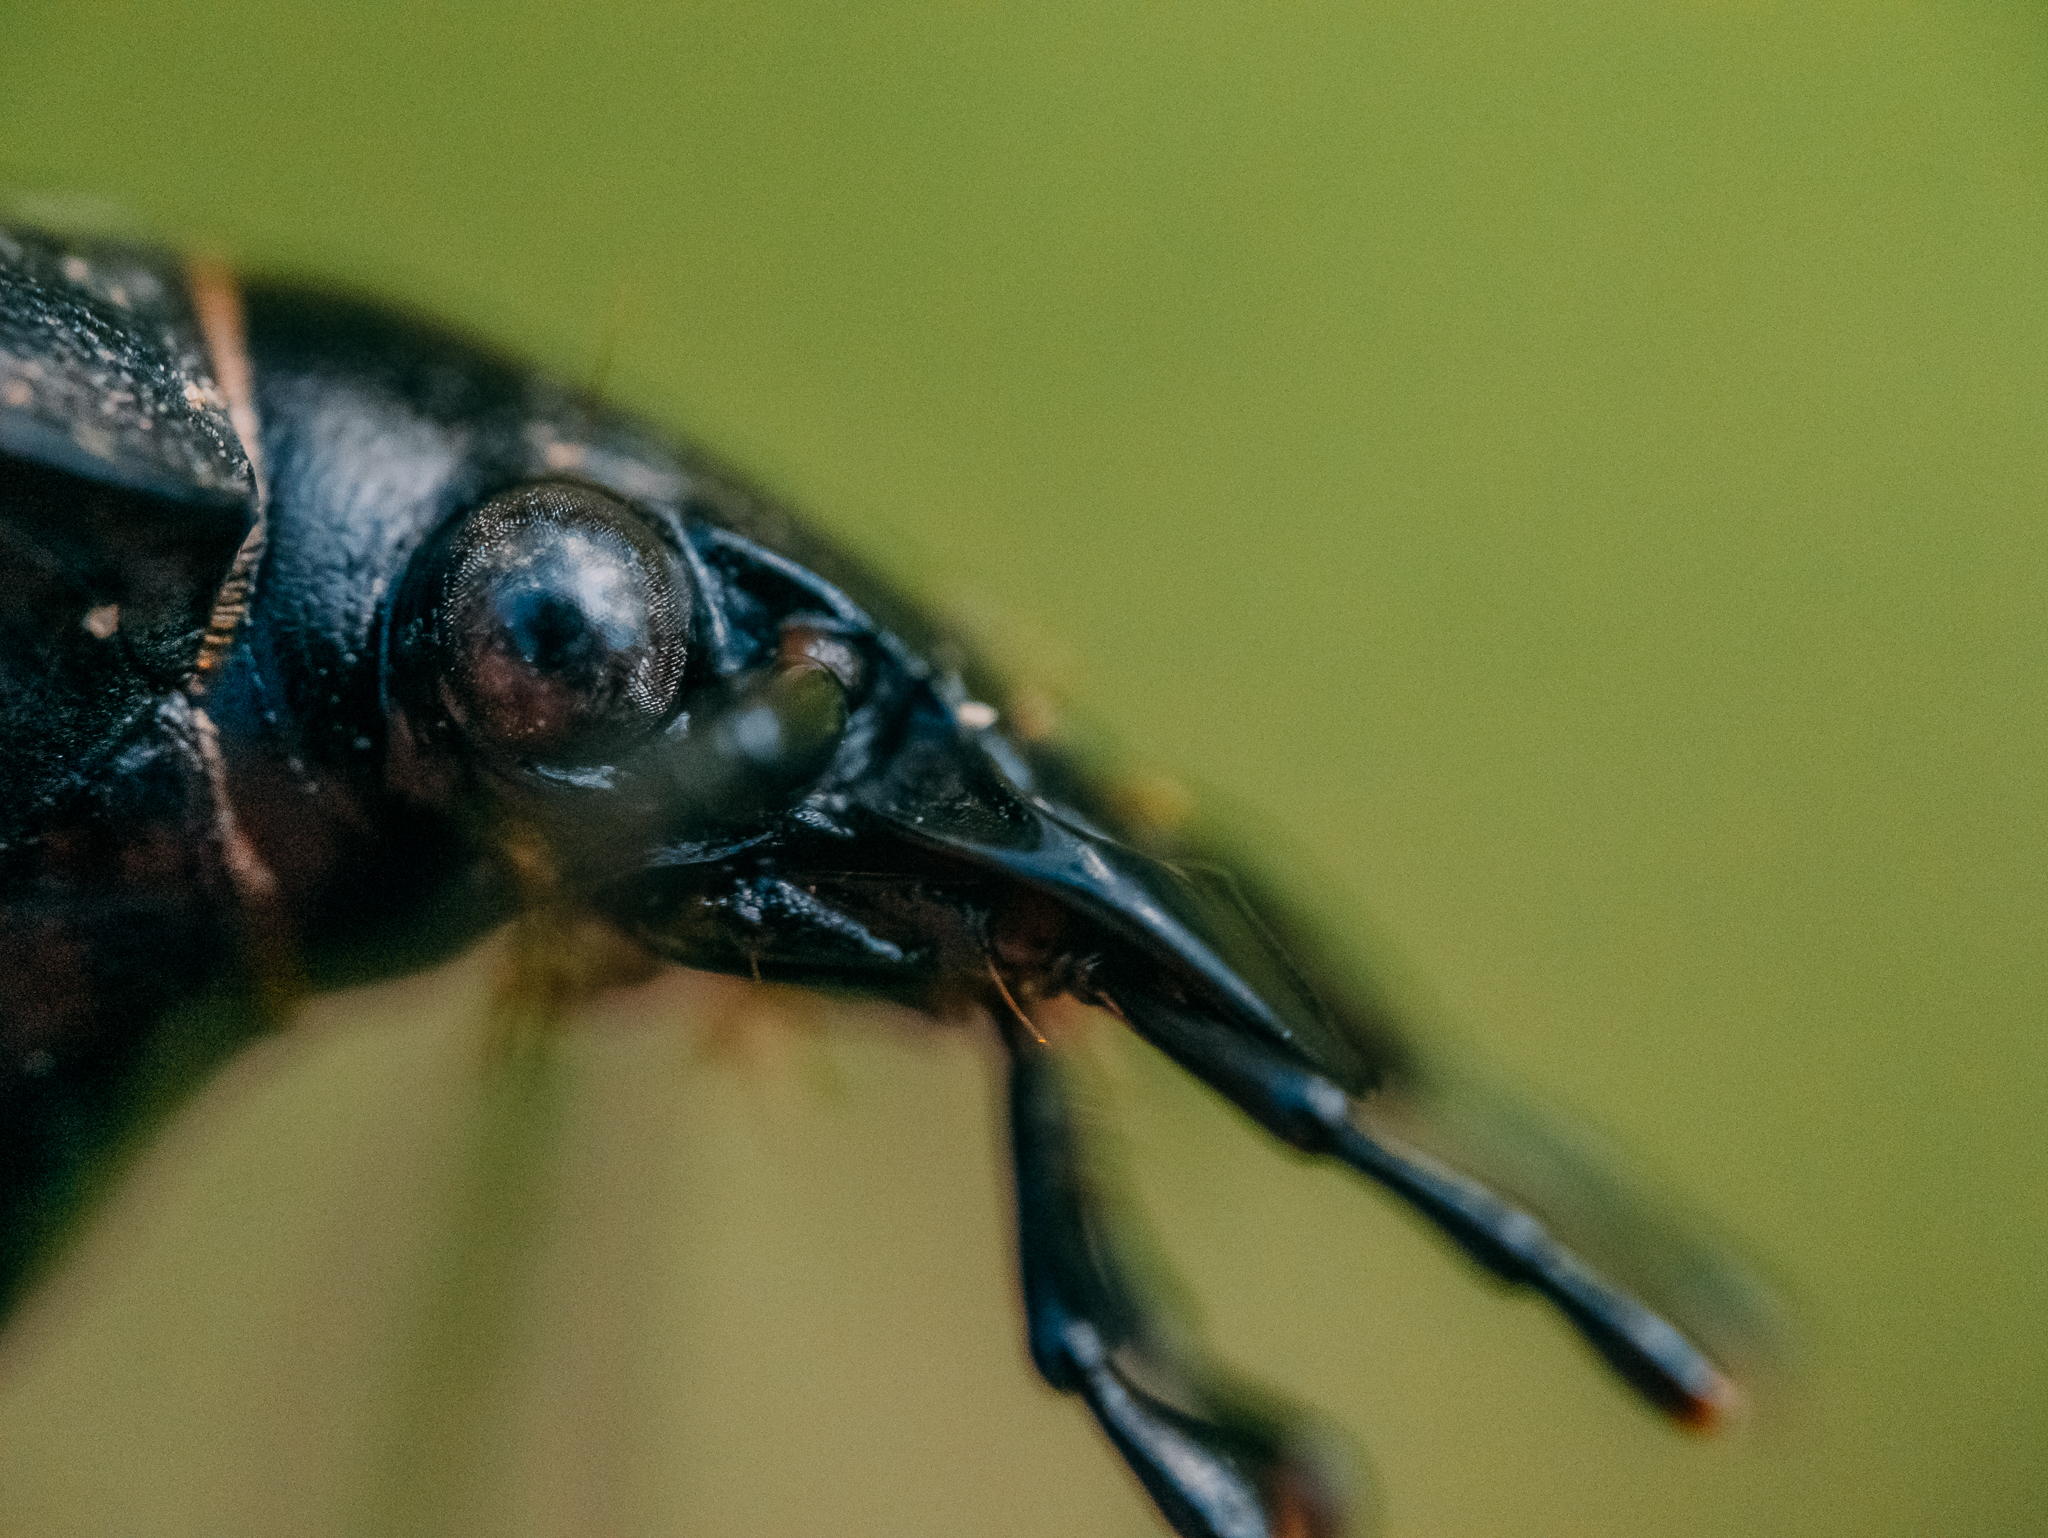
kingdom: Animalia
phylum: Arthropoda
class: Insecta
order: Coleoptera
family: Carabidae
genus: Carabus
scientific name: Carabus hortensis
